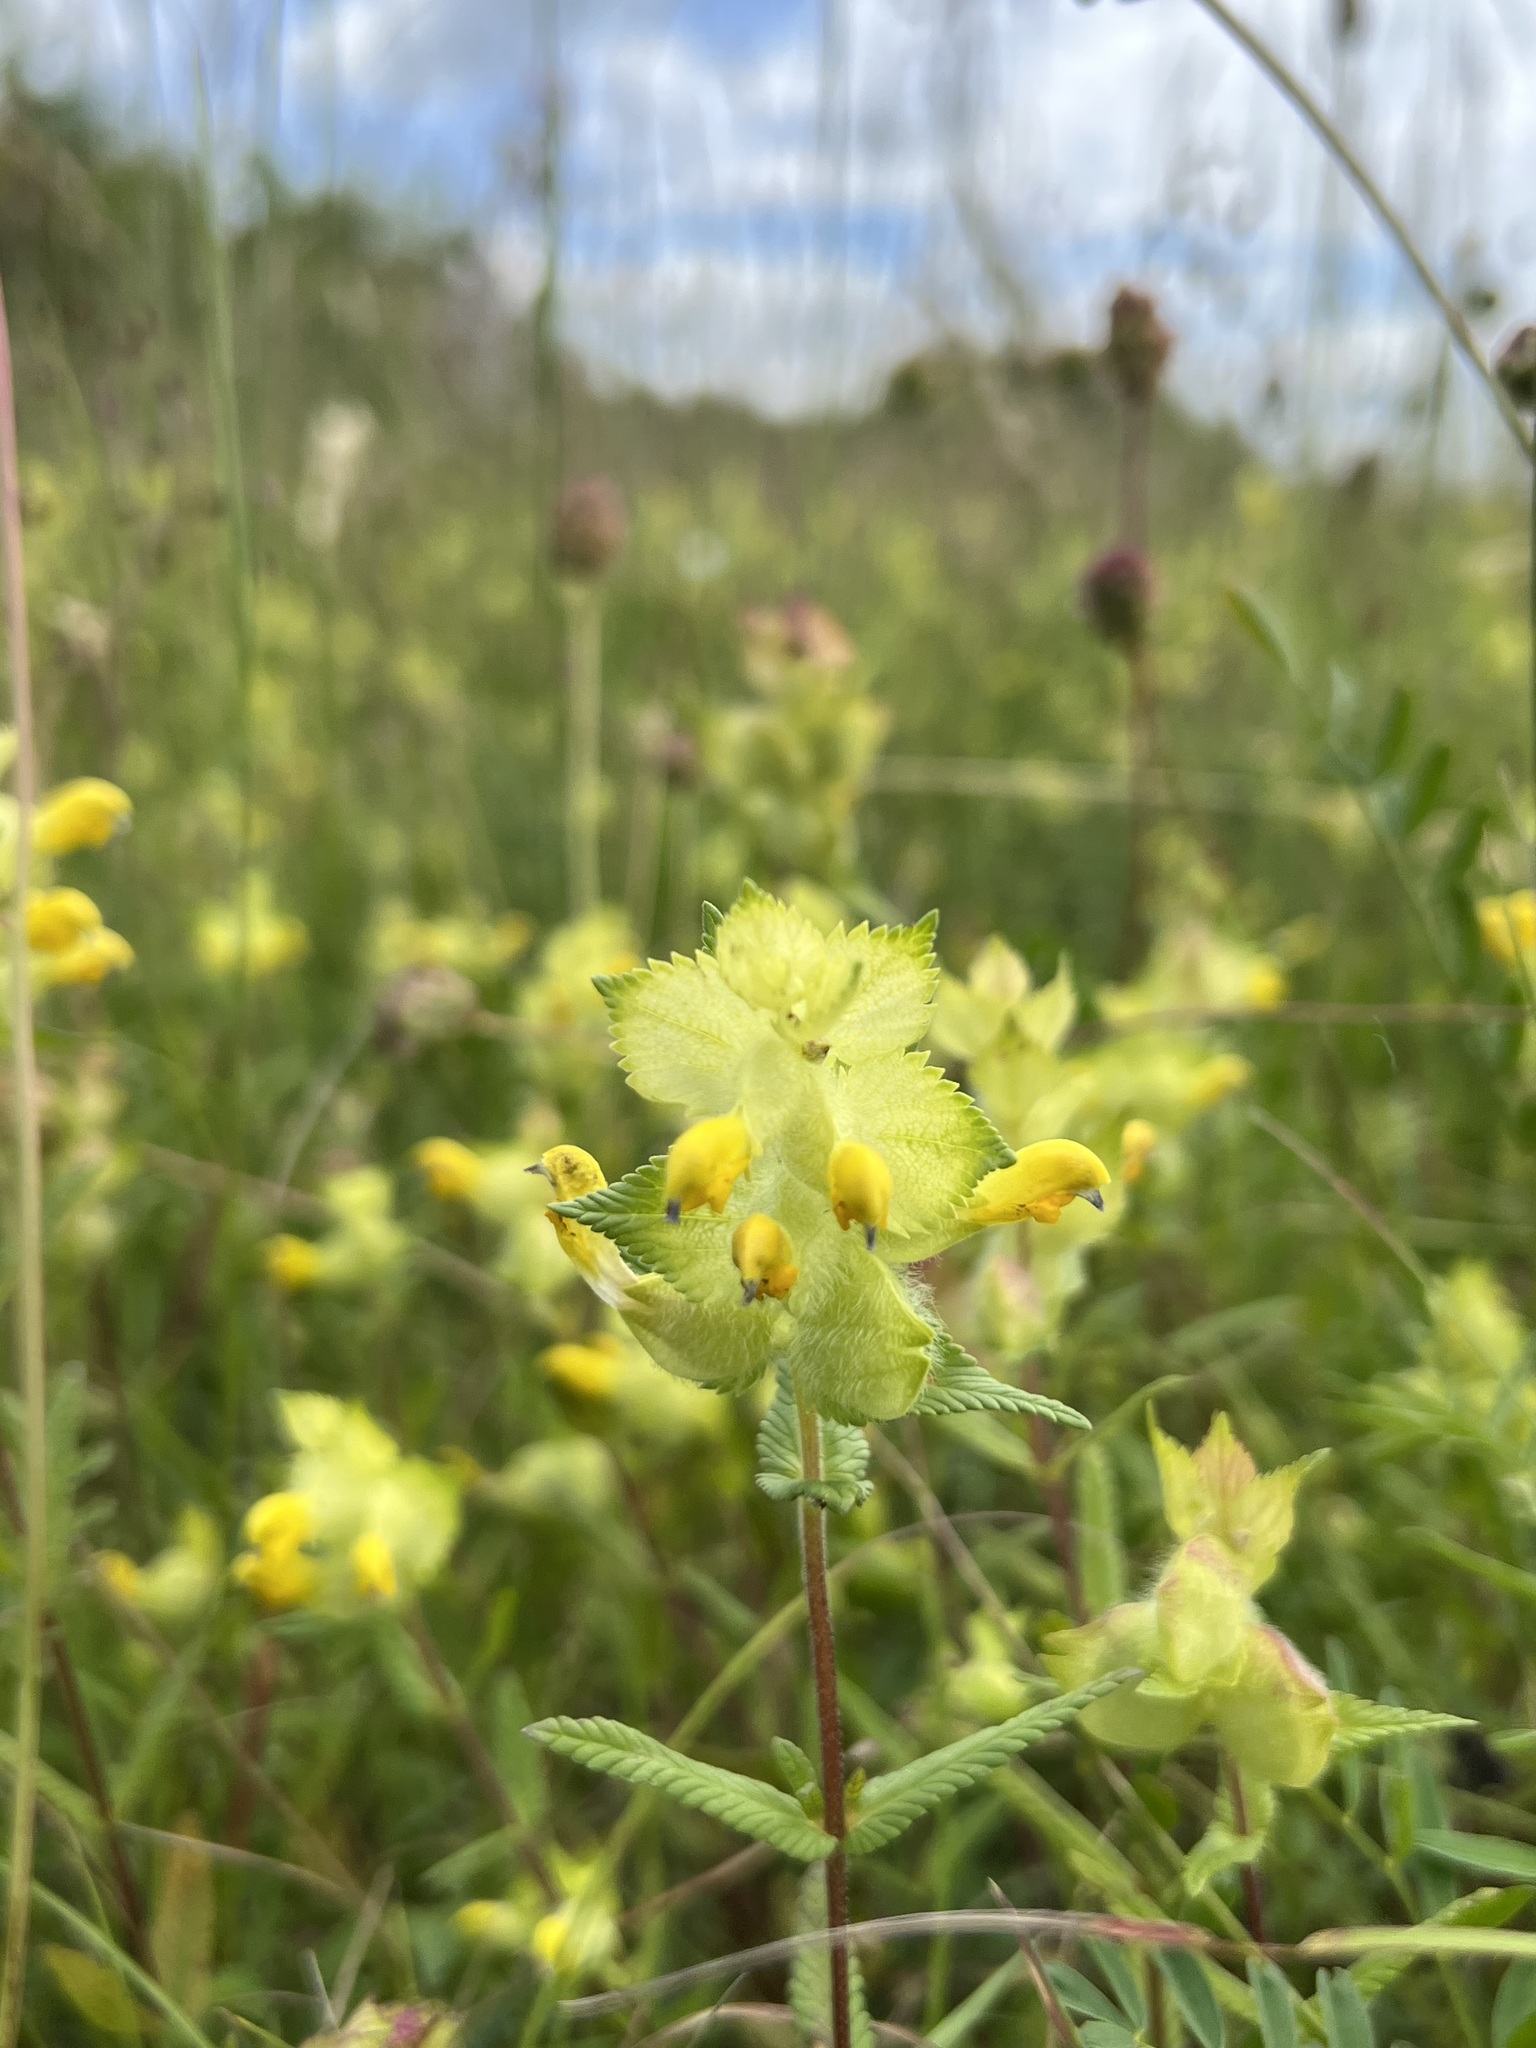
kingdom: Plantae
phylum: Tracheophyta
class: Magnoliopsida
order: Lamiales
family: Orobanchaceae
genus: Rhinanthus
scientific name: Rhinanthus alectorolophus
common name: Greater yellow-rattle
